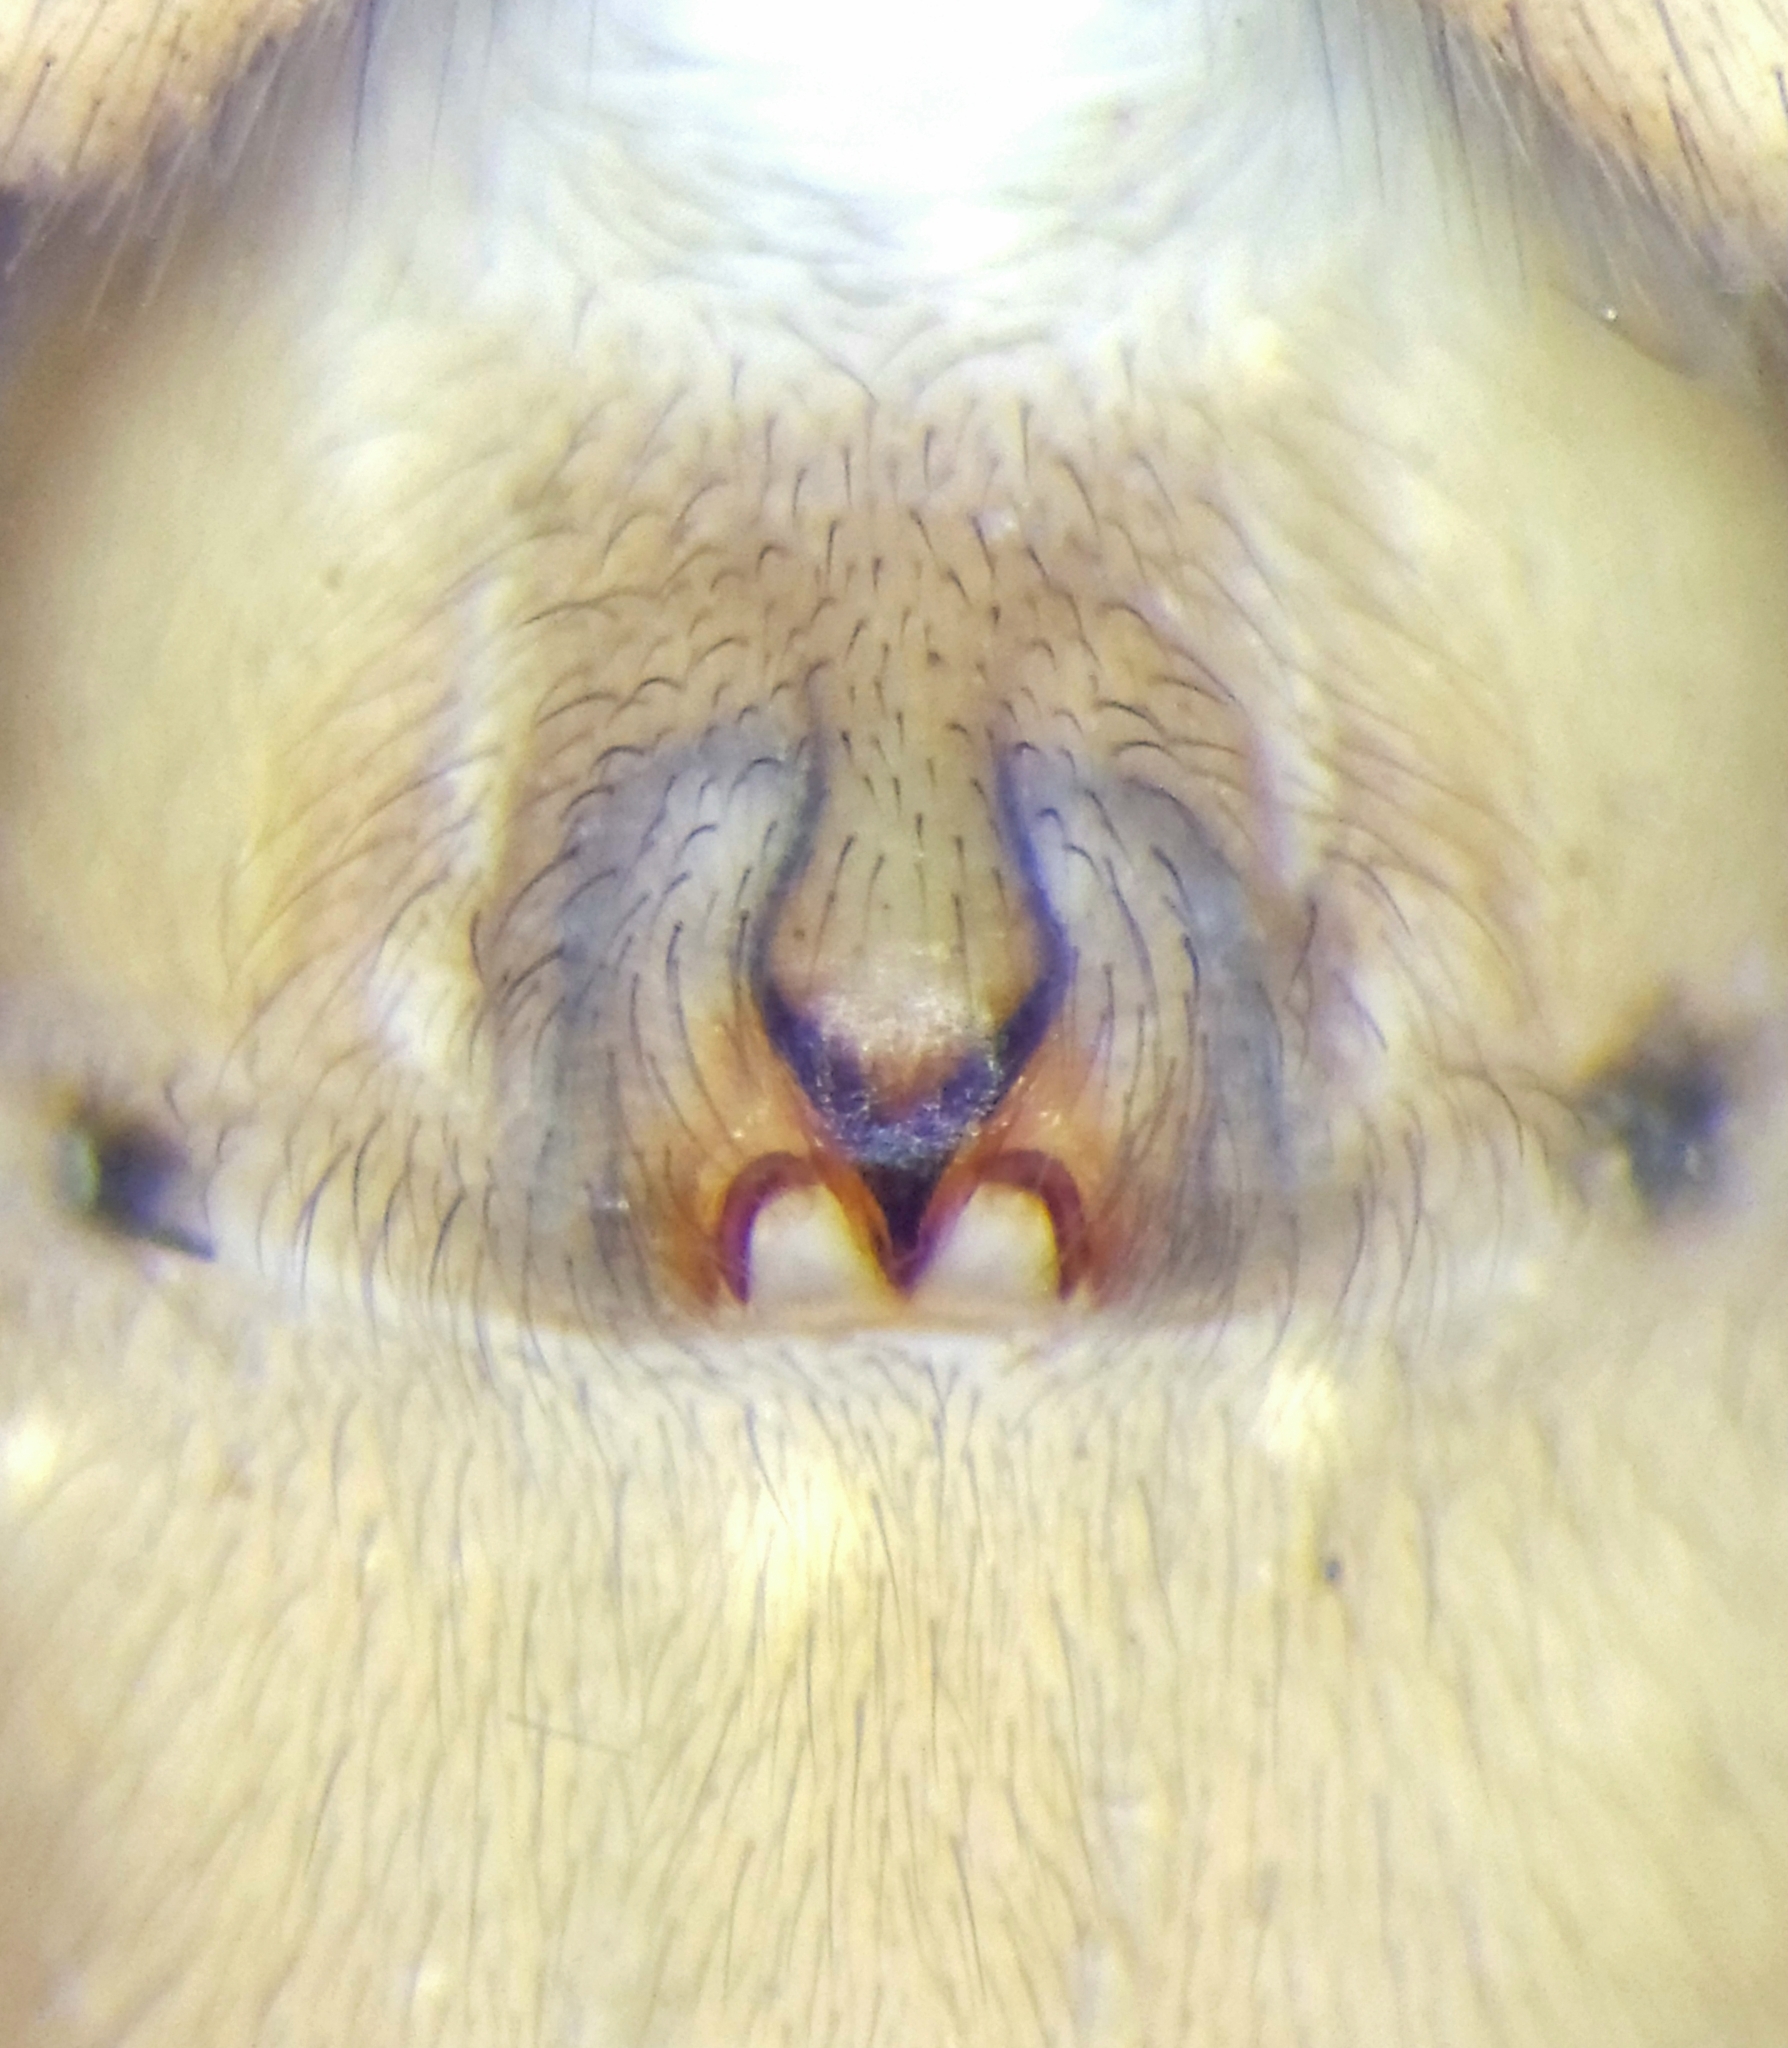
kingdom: Animalia
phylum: Arthropoda
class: Arachnida
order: Araneae
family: Gnaphosidae
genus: Orodrassus
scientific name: Orodrassus coloradensis
